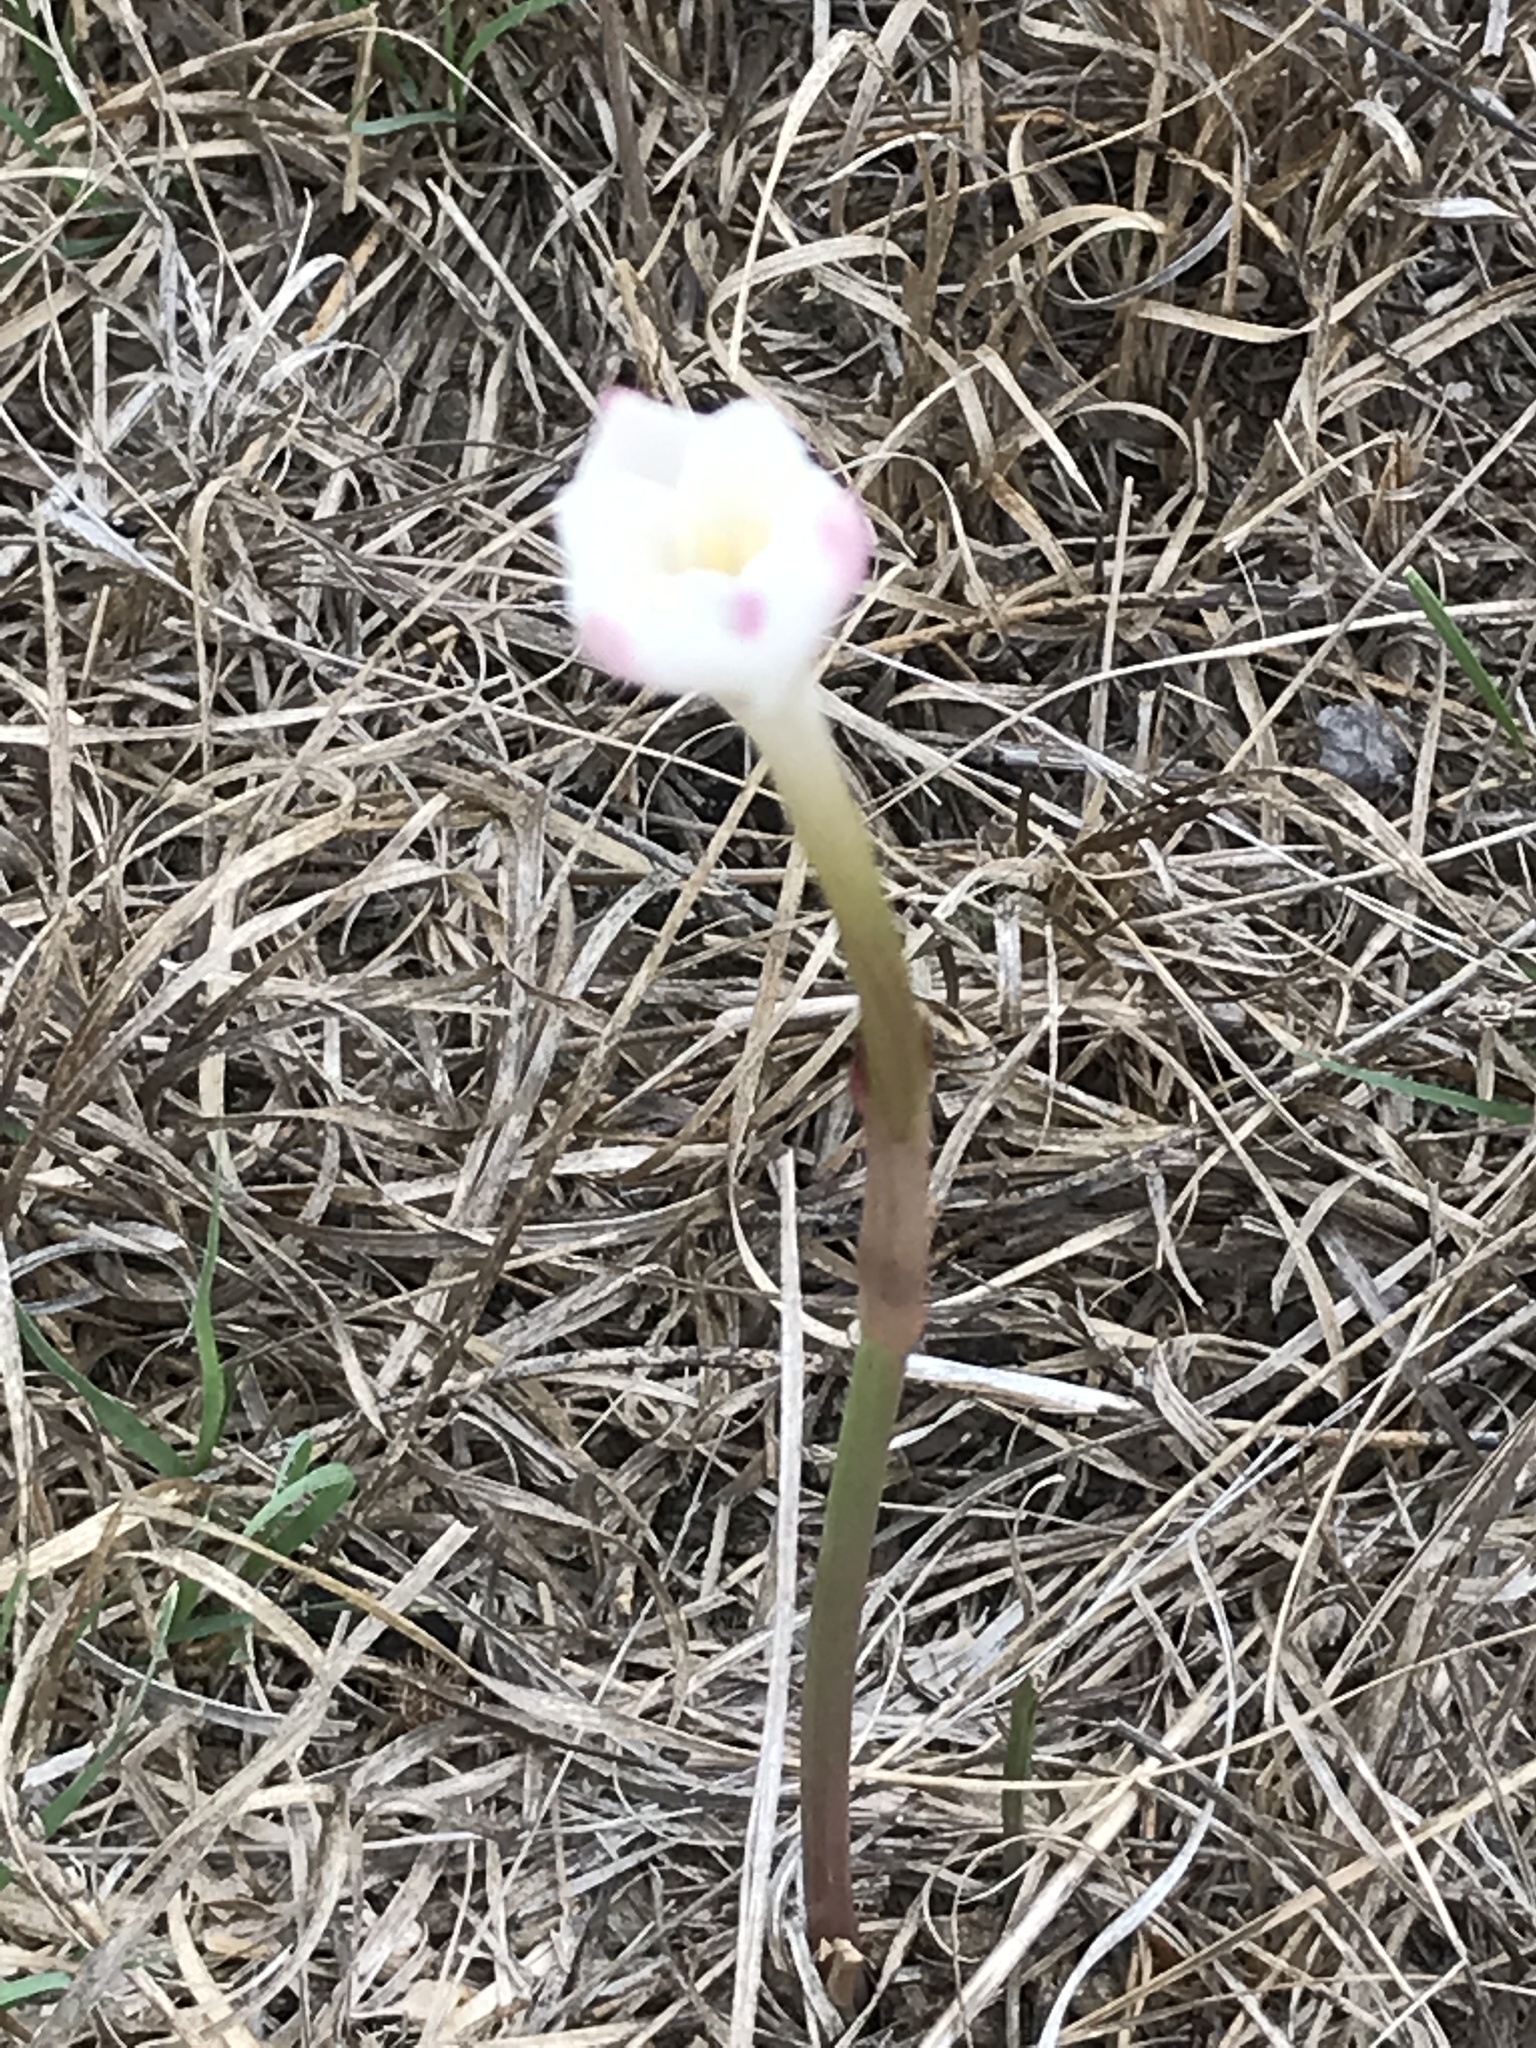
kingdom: Plantae
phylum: Tracheophyta
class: Liliopsida
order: Asparagales
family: Amaryllidaceae
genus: Zephyranthes
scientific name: Zephyranthes chlorosolen
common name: Evening rain-lily
